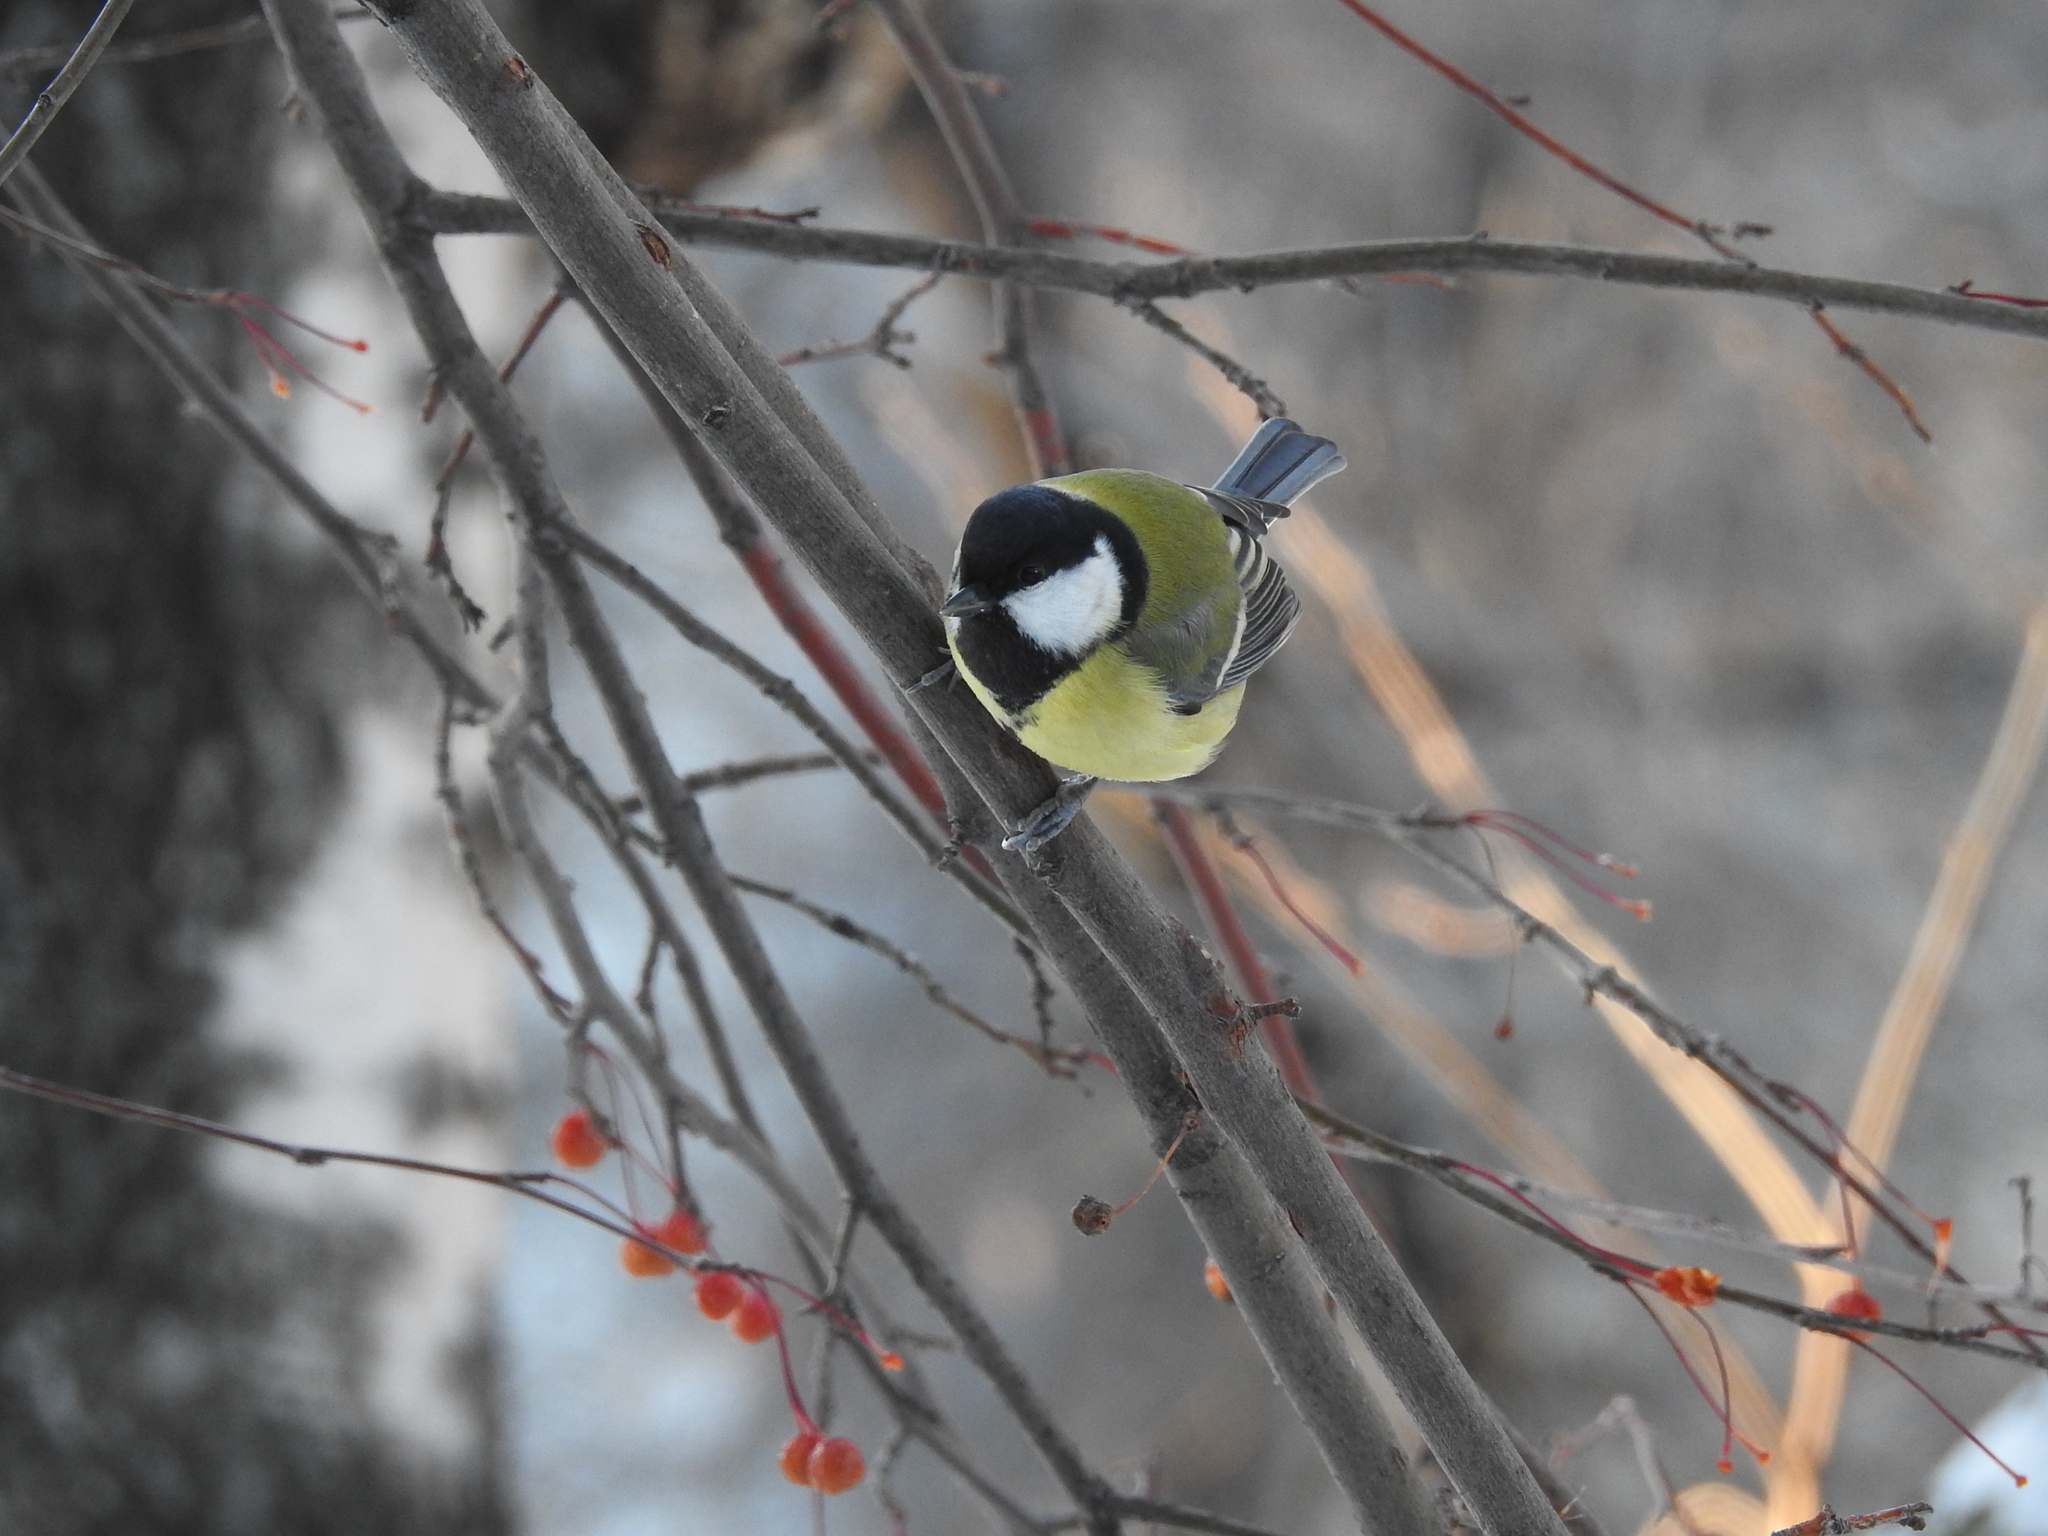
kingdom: Animalia
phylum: Chordata
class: Aves
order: Passeriformes
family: Paridae
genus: Parus
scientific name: Parus major
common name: Great tit
